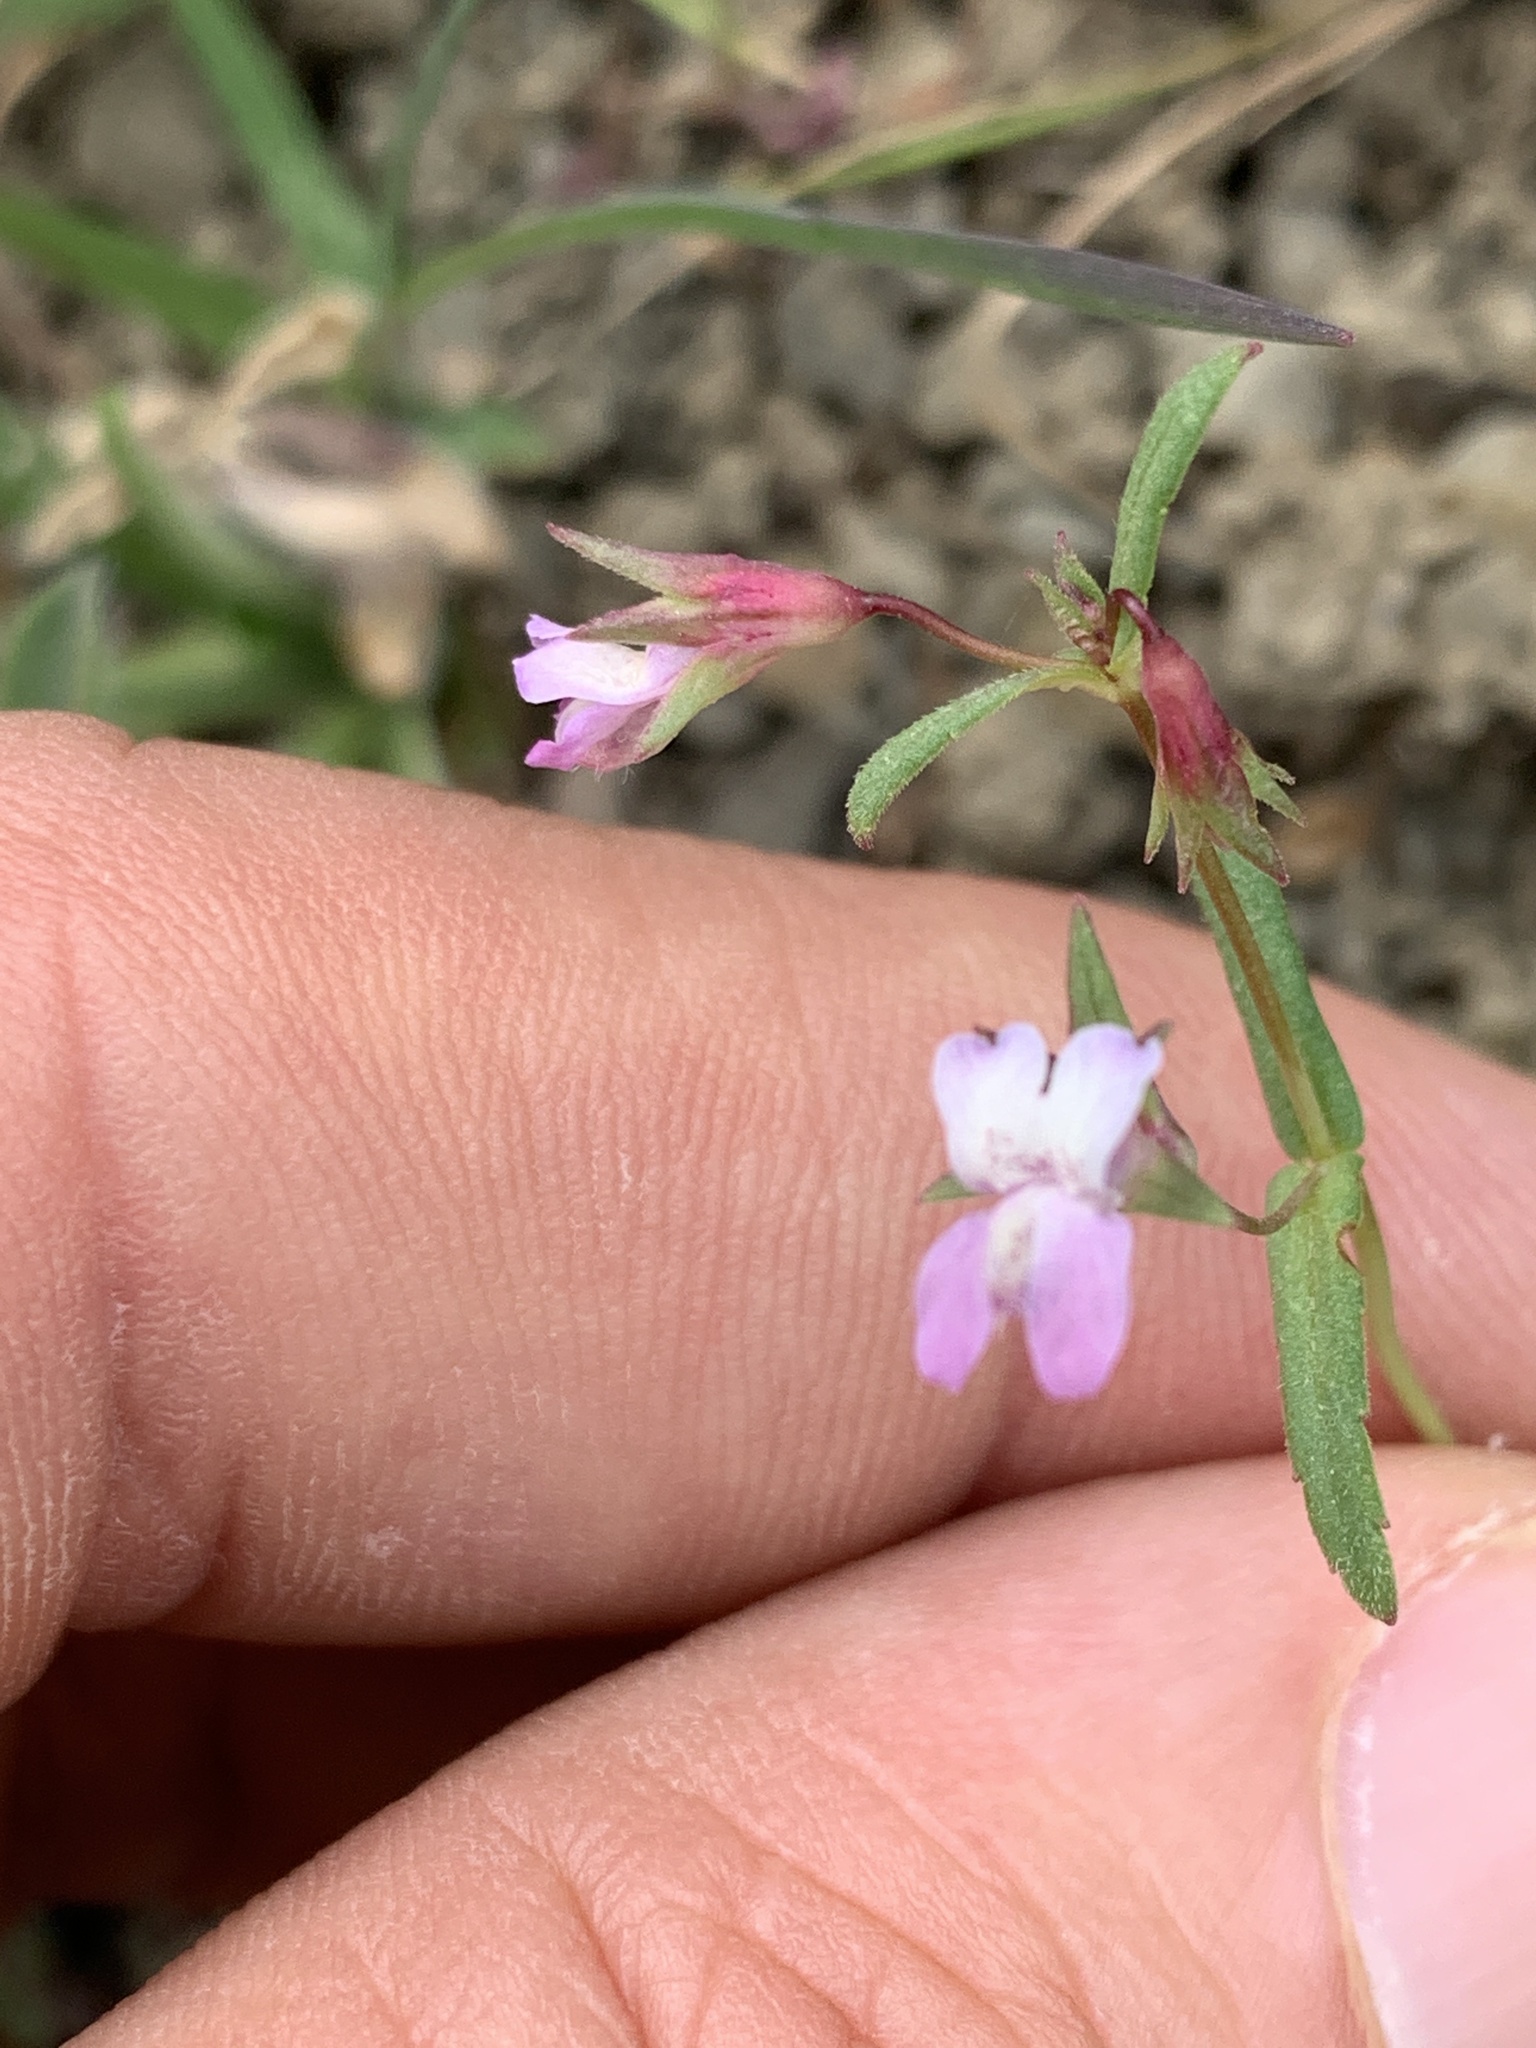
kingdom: Plantae
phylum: Tracheophyta
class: Magnoliopsida
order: Lamiales
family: Plantaginaceae
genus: Collinsia
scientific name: Collinsia sparsiflora
